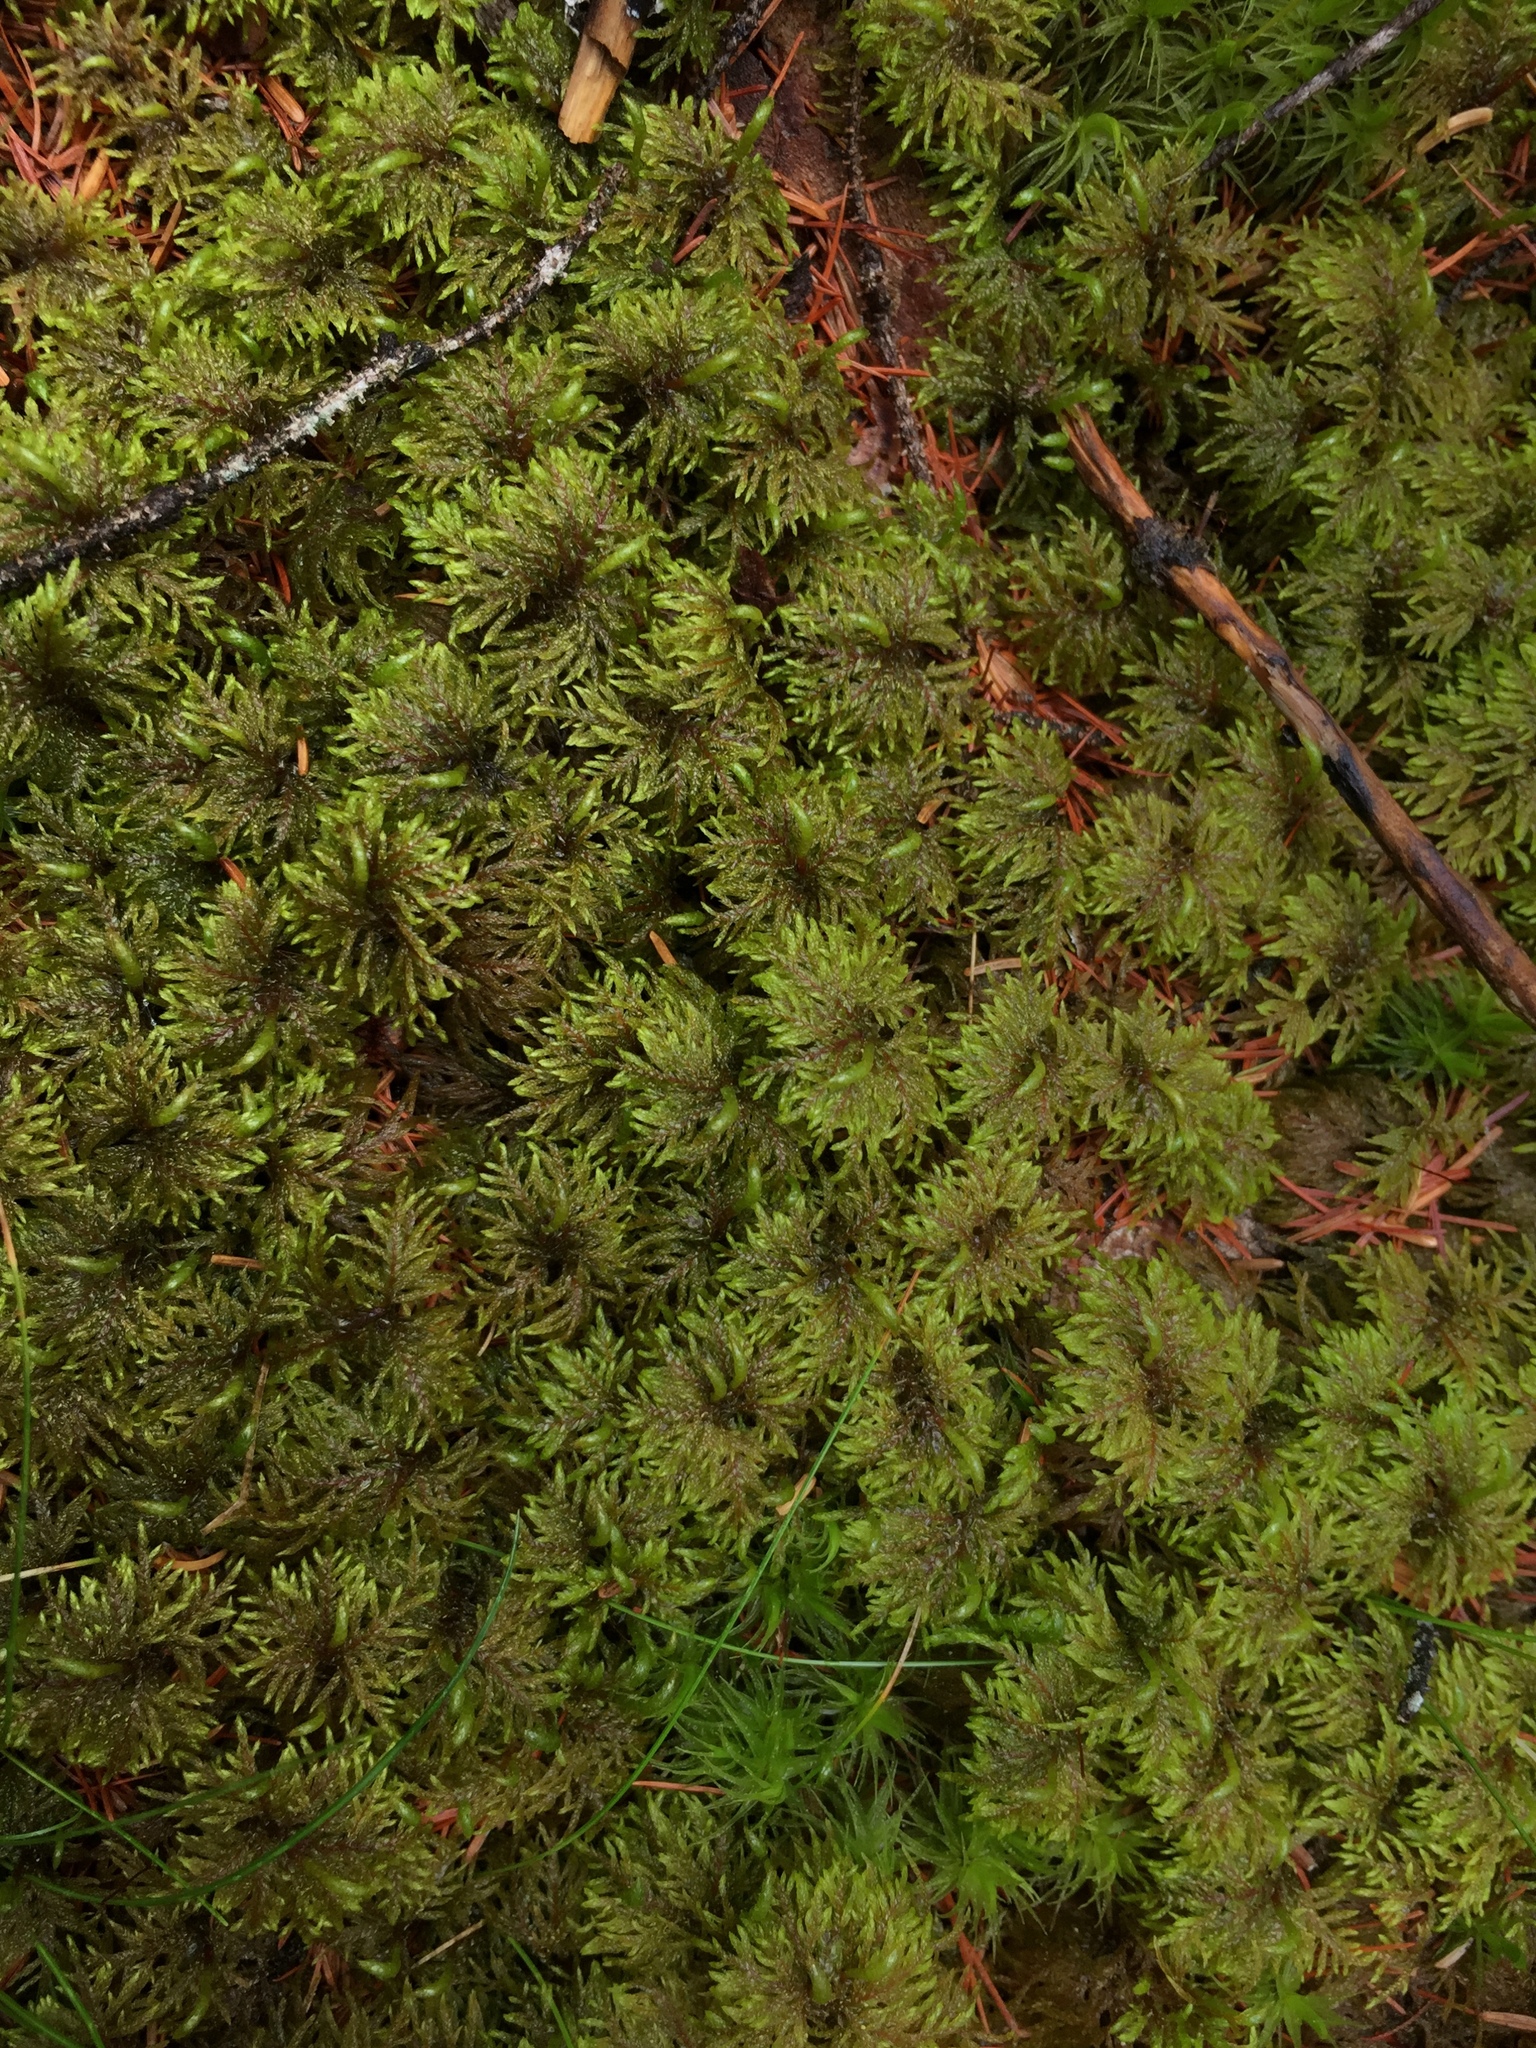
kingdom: Plantae
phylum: Bryophyta
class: Bryopsida
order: Hypnales
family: Hylocomiaceae
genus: Hylocomium
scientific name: Hylocomium splendens
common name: Stairstep moss
